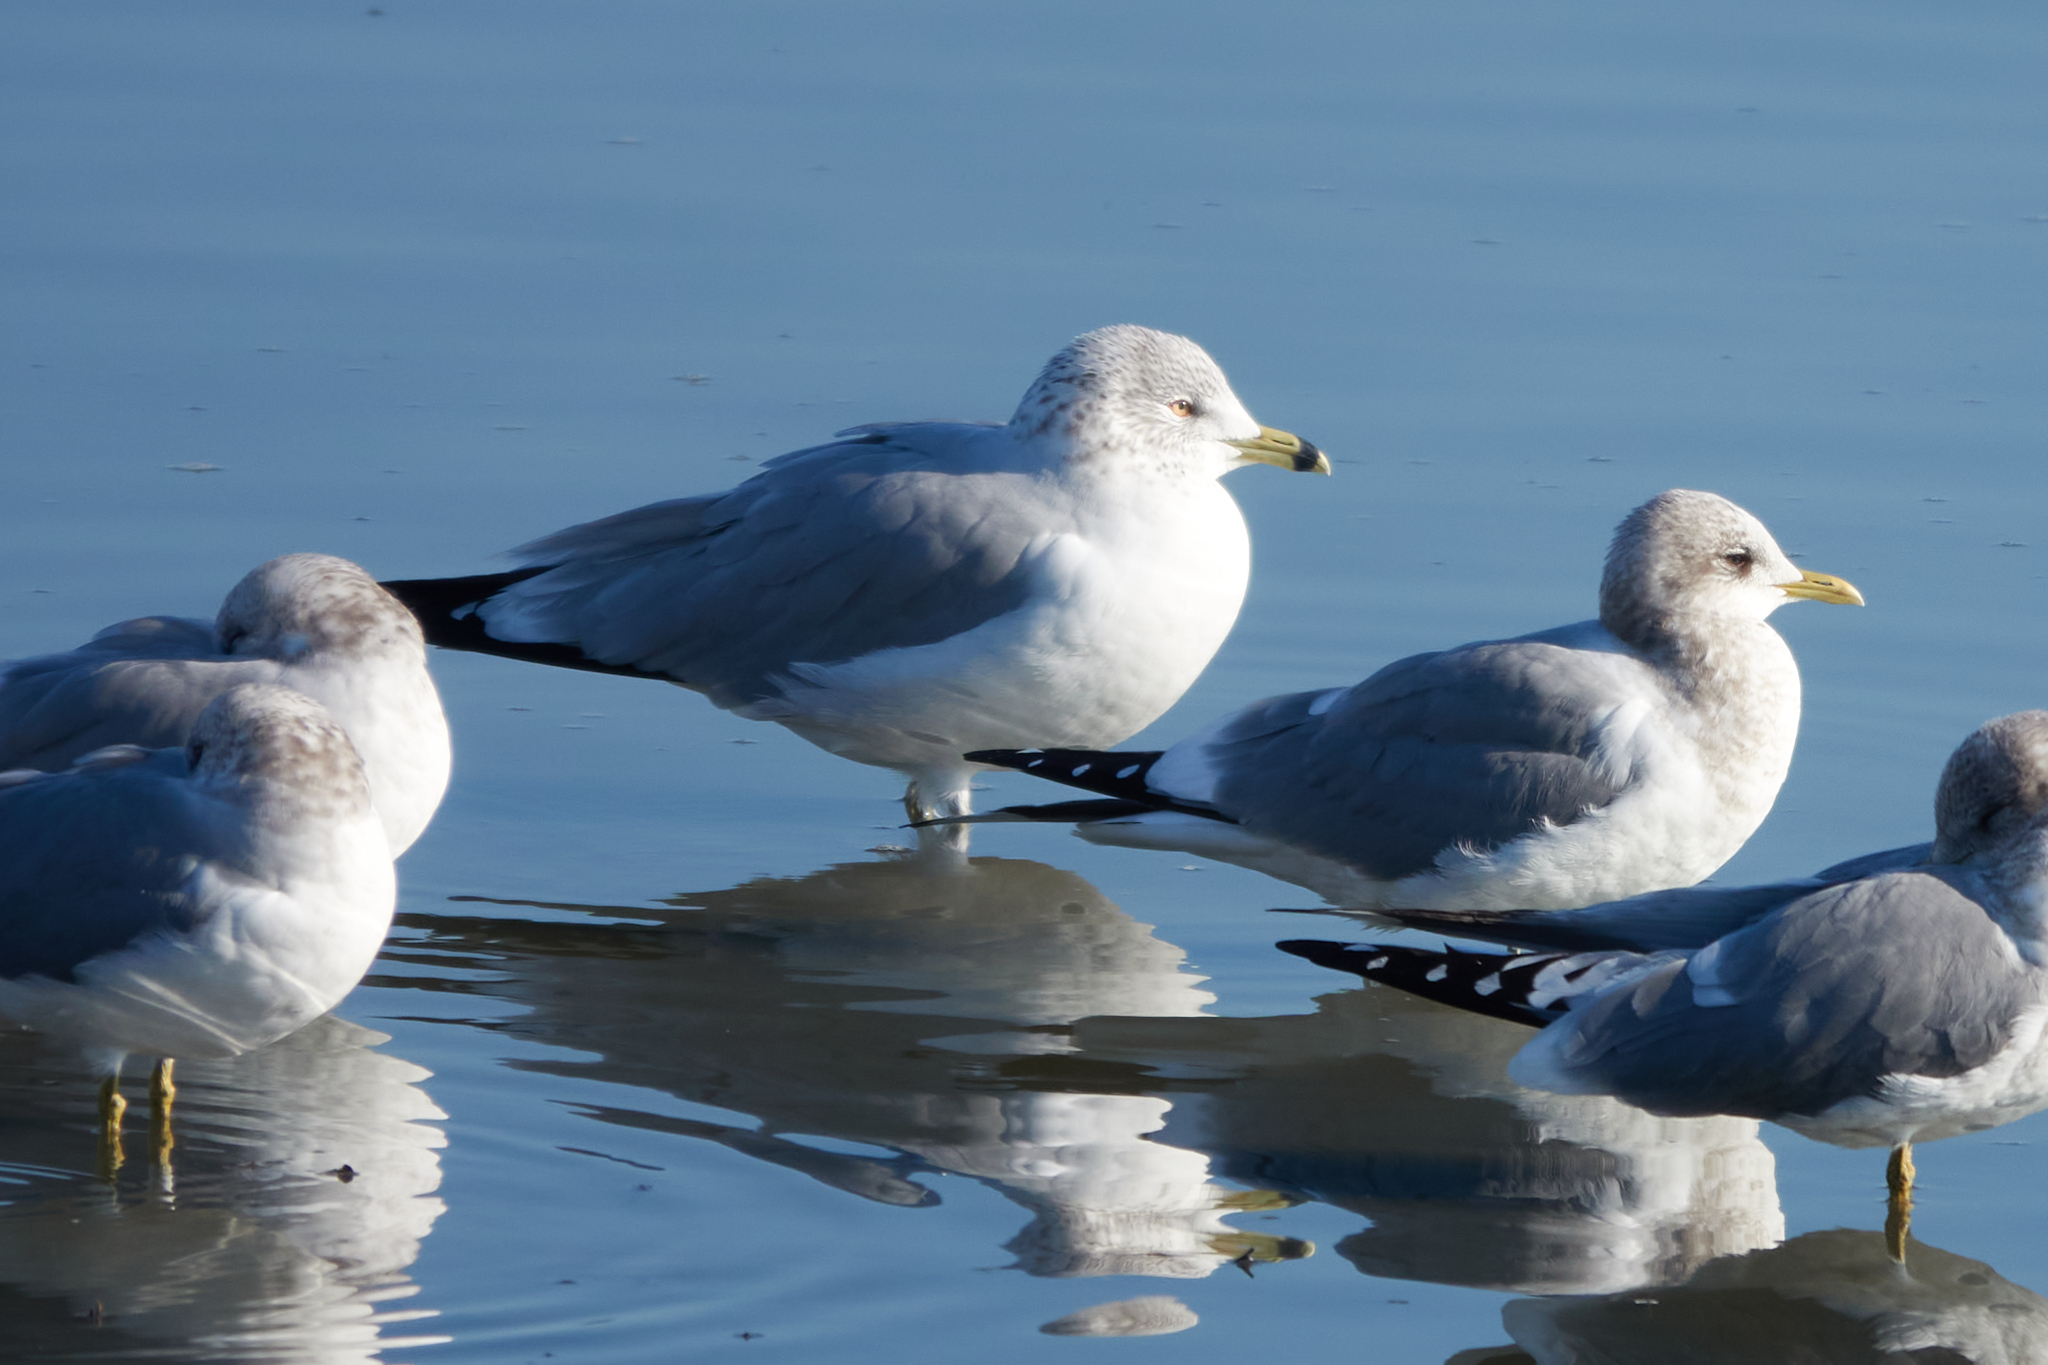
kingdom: Animalia
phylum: Chordata
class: Aves
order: Charadriiformes
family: Laridae
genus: Larus
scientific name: Larus delawarensis
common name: Ring-billed gull
